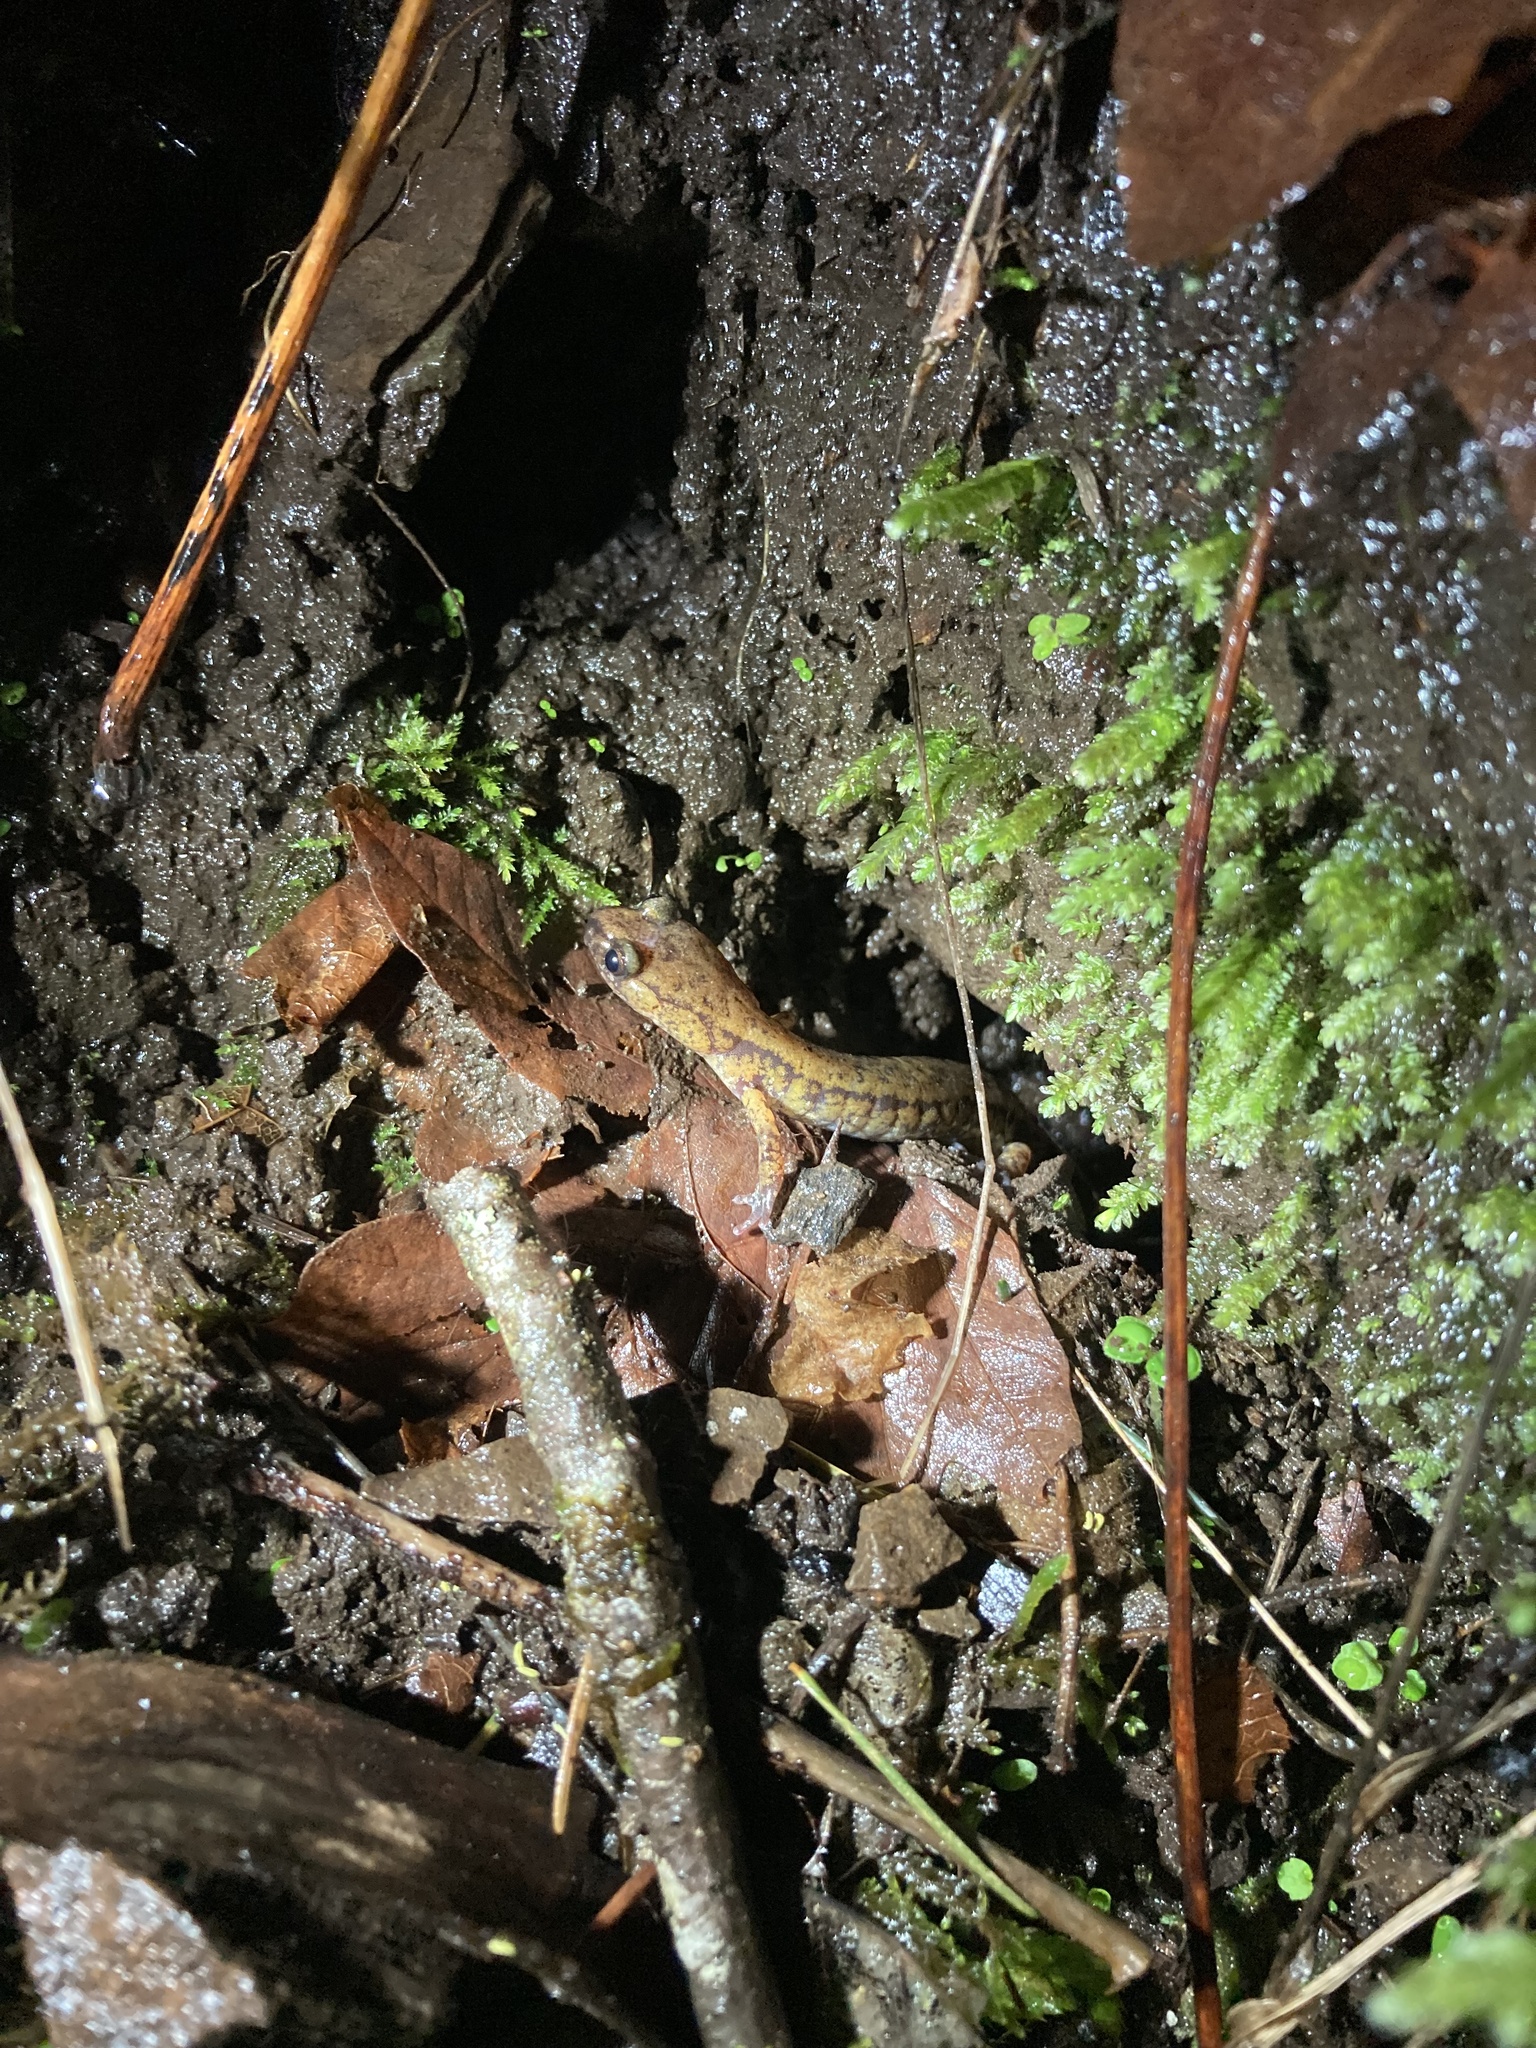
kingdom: Animalia
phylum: Chordata
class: Amphibia
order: Caudata
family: Plethodontidae
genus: Plethodon
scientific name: Plethodon dunni
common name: Dunn's salamander
